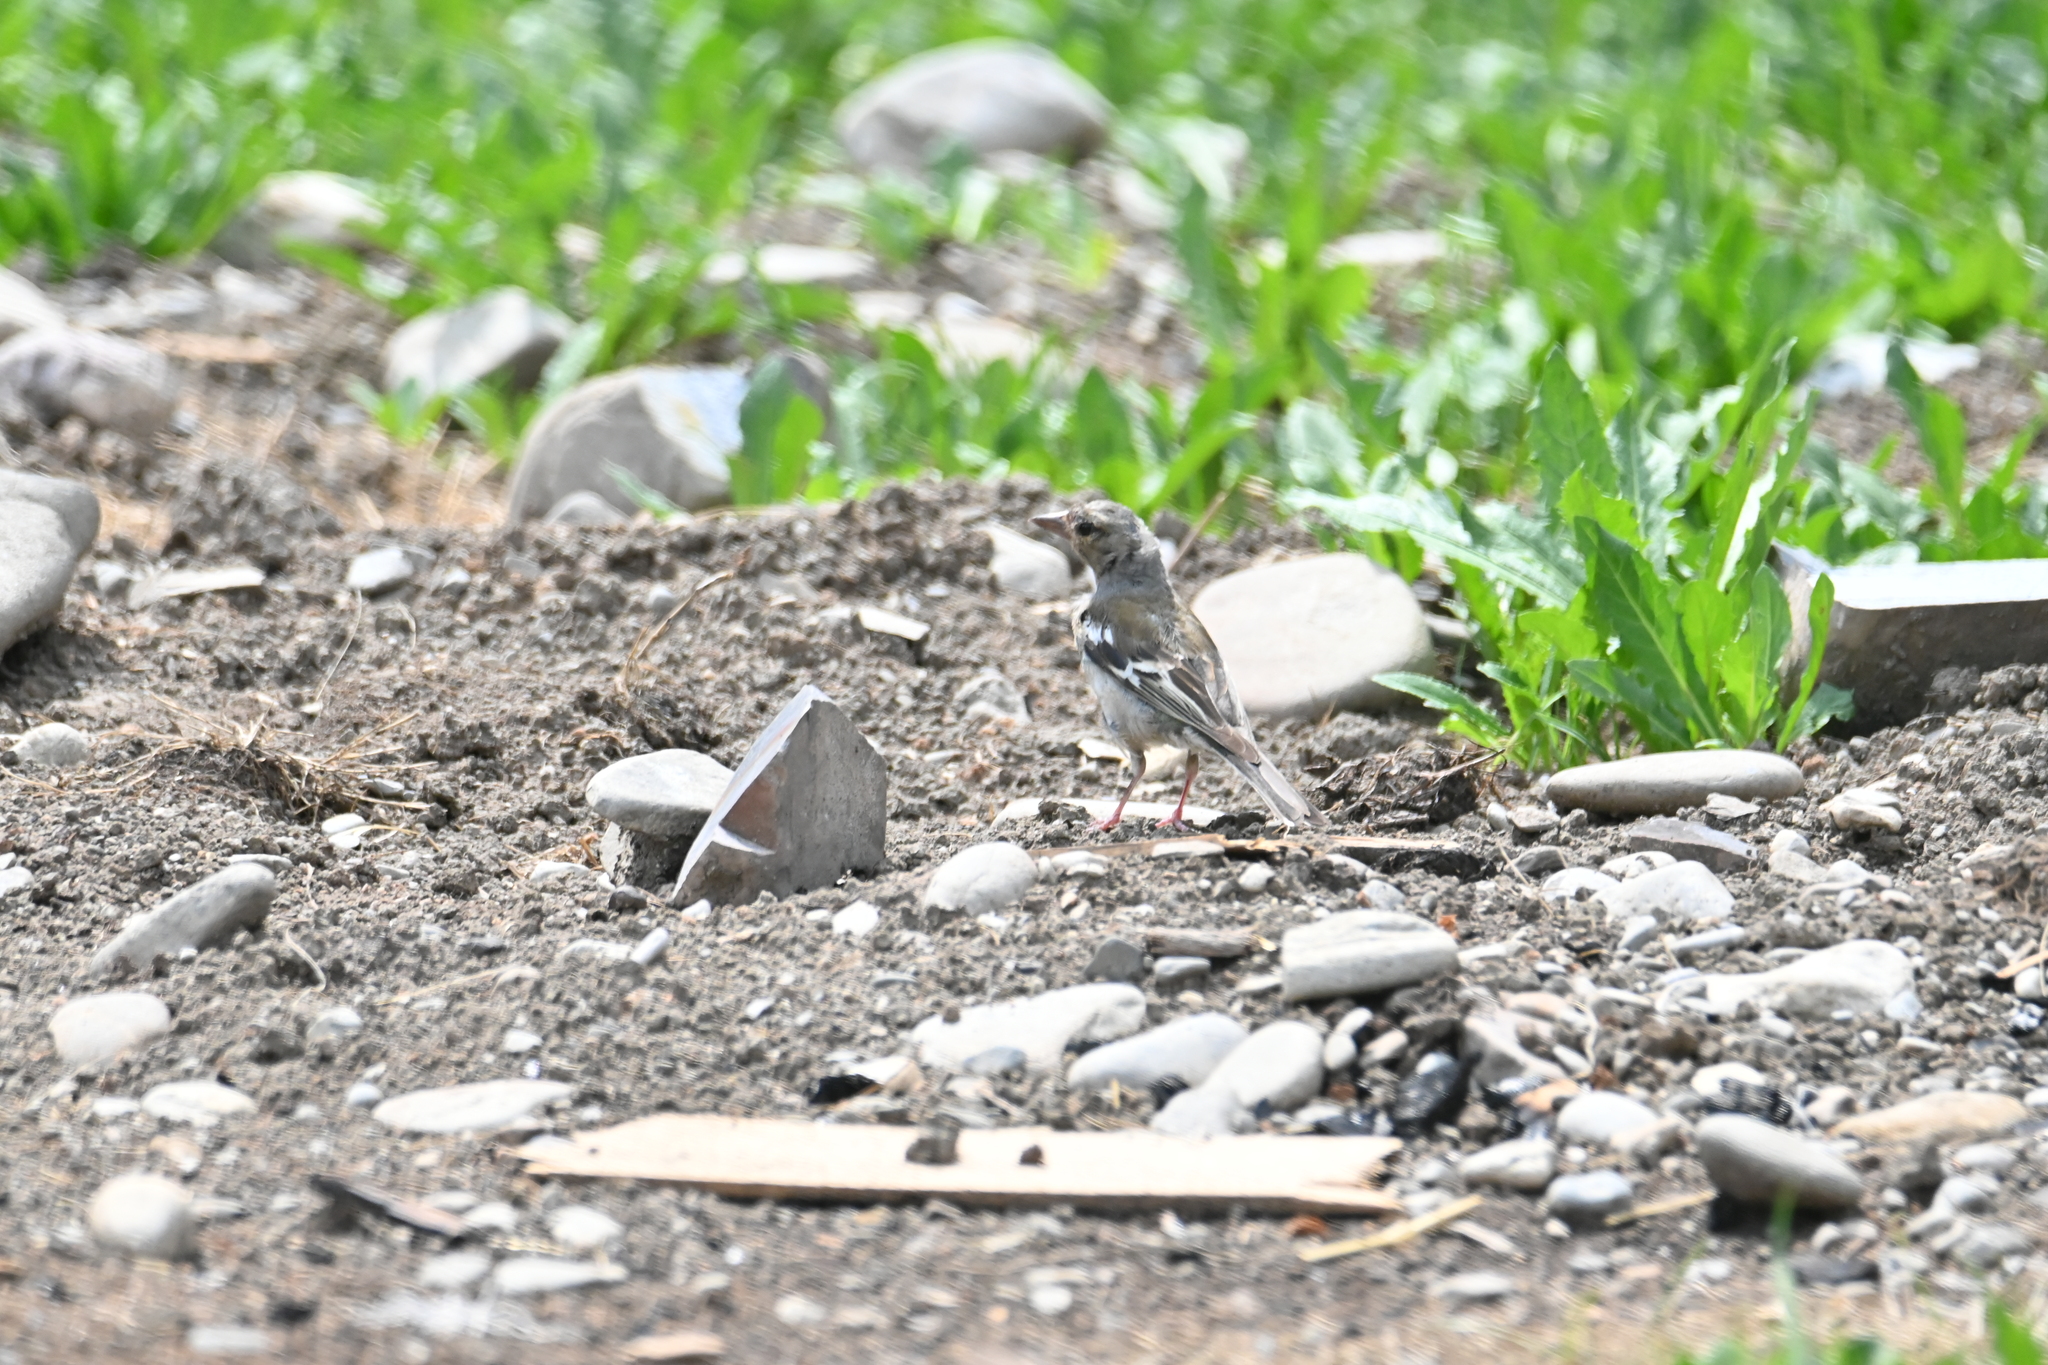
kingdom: Animalia
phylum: Chordata
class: Aves
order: Passeriformes
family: Fringillidae
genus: Fringilla
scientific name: Fringilla coelebs
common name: Common chaffinch
